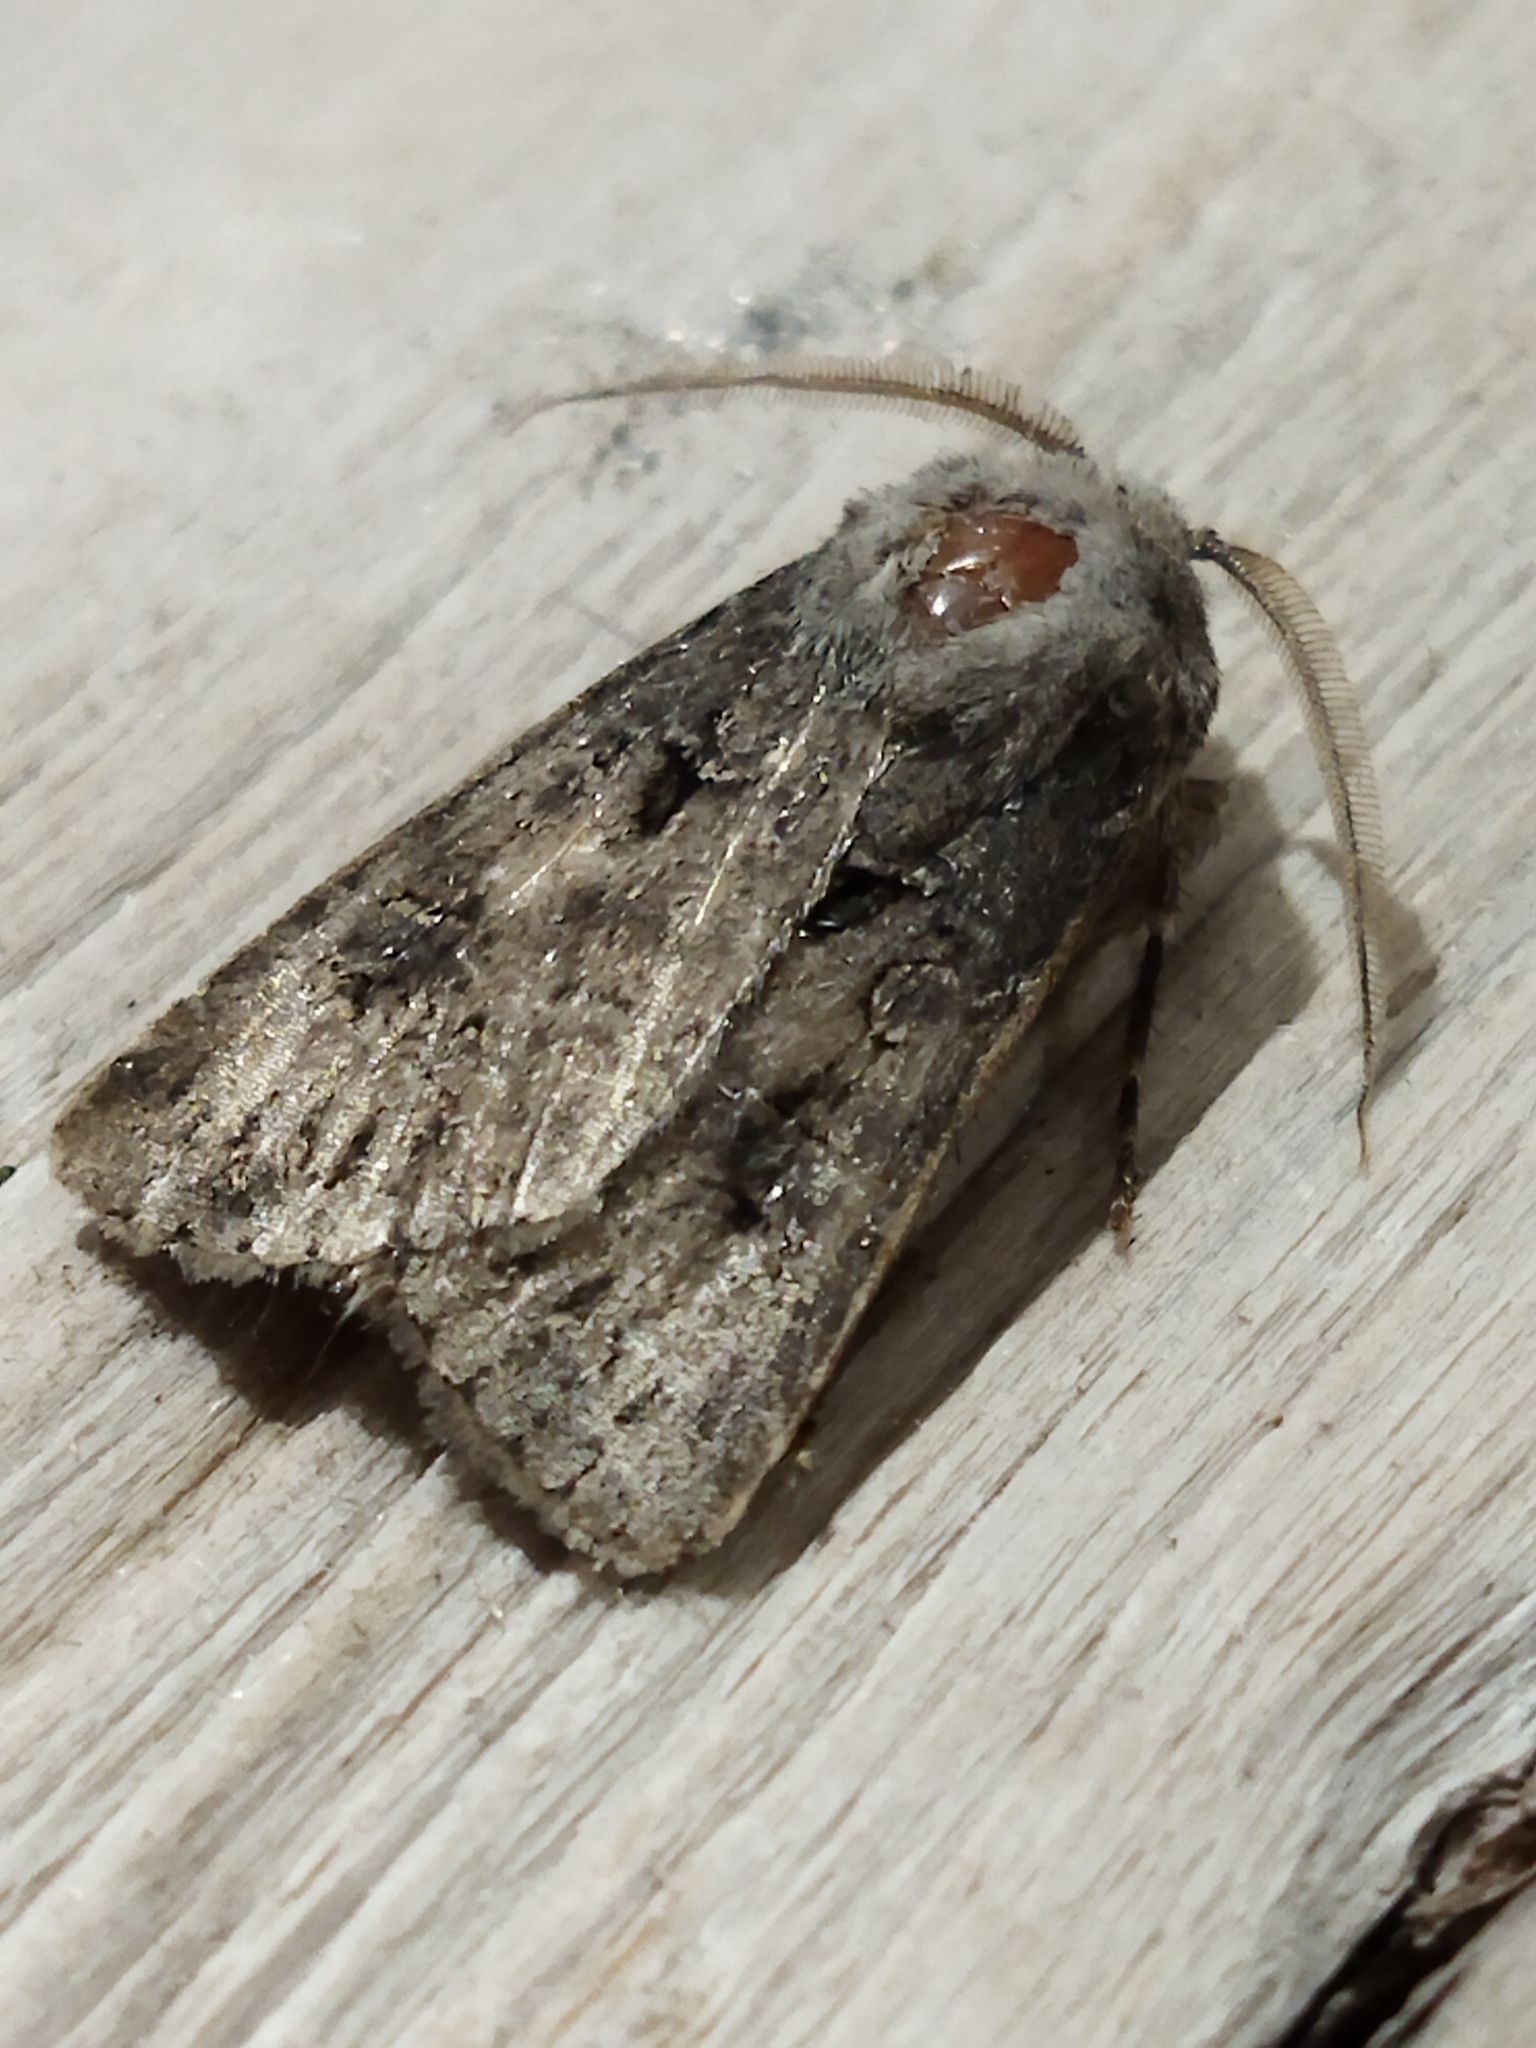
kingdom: Animalia
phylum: Arthropoda
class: Insecta
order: Lepidoptera
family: Noctuidae
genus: Agrotis
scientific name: Agrotis bigramma
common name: Great dart
